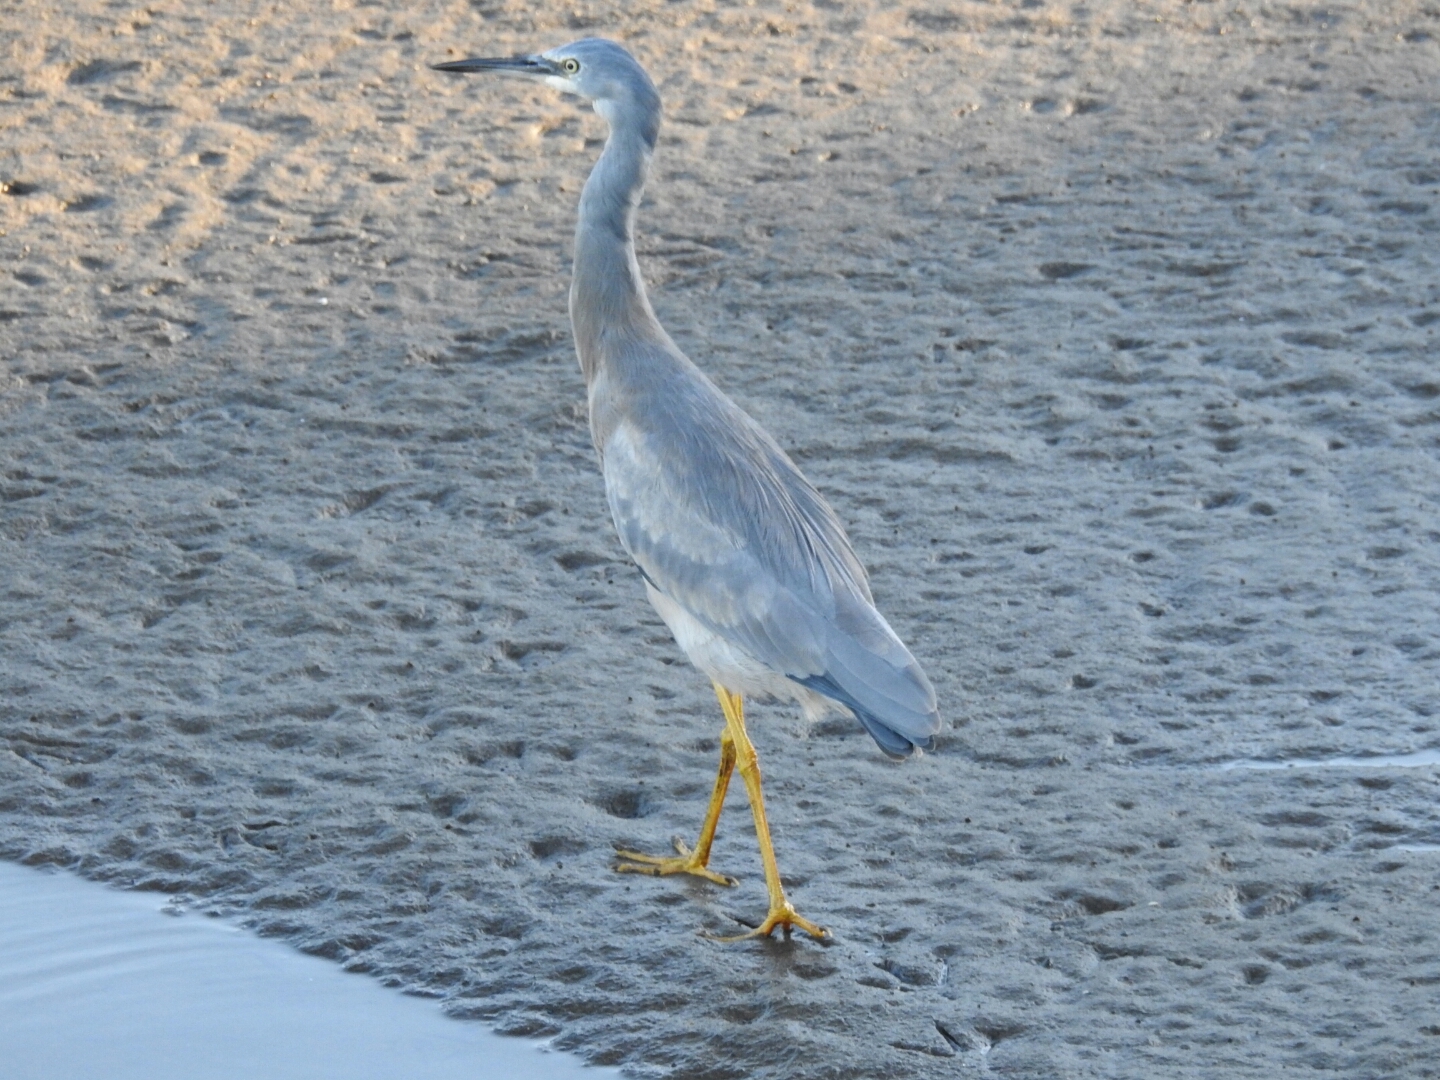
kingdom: Animalia
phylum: Chordata
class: Aves
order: Pelecaniformes
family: Ardeidae
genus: Egretta
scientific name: Egretta novaehollandiae
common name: White-faced heron
